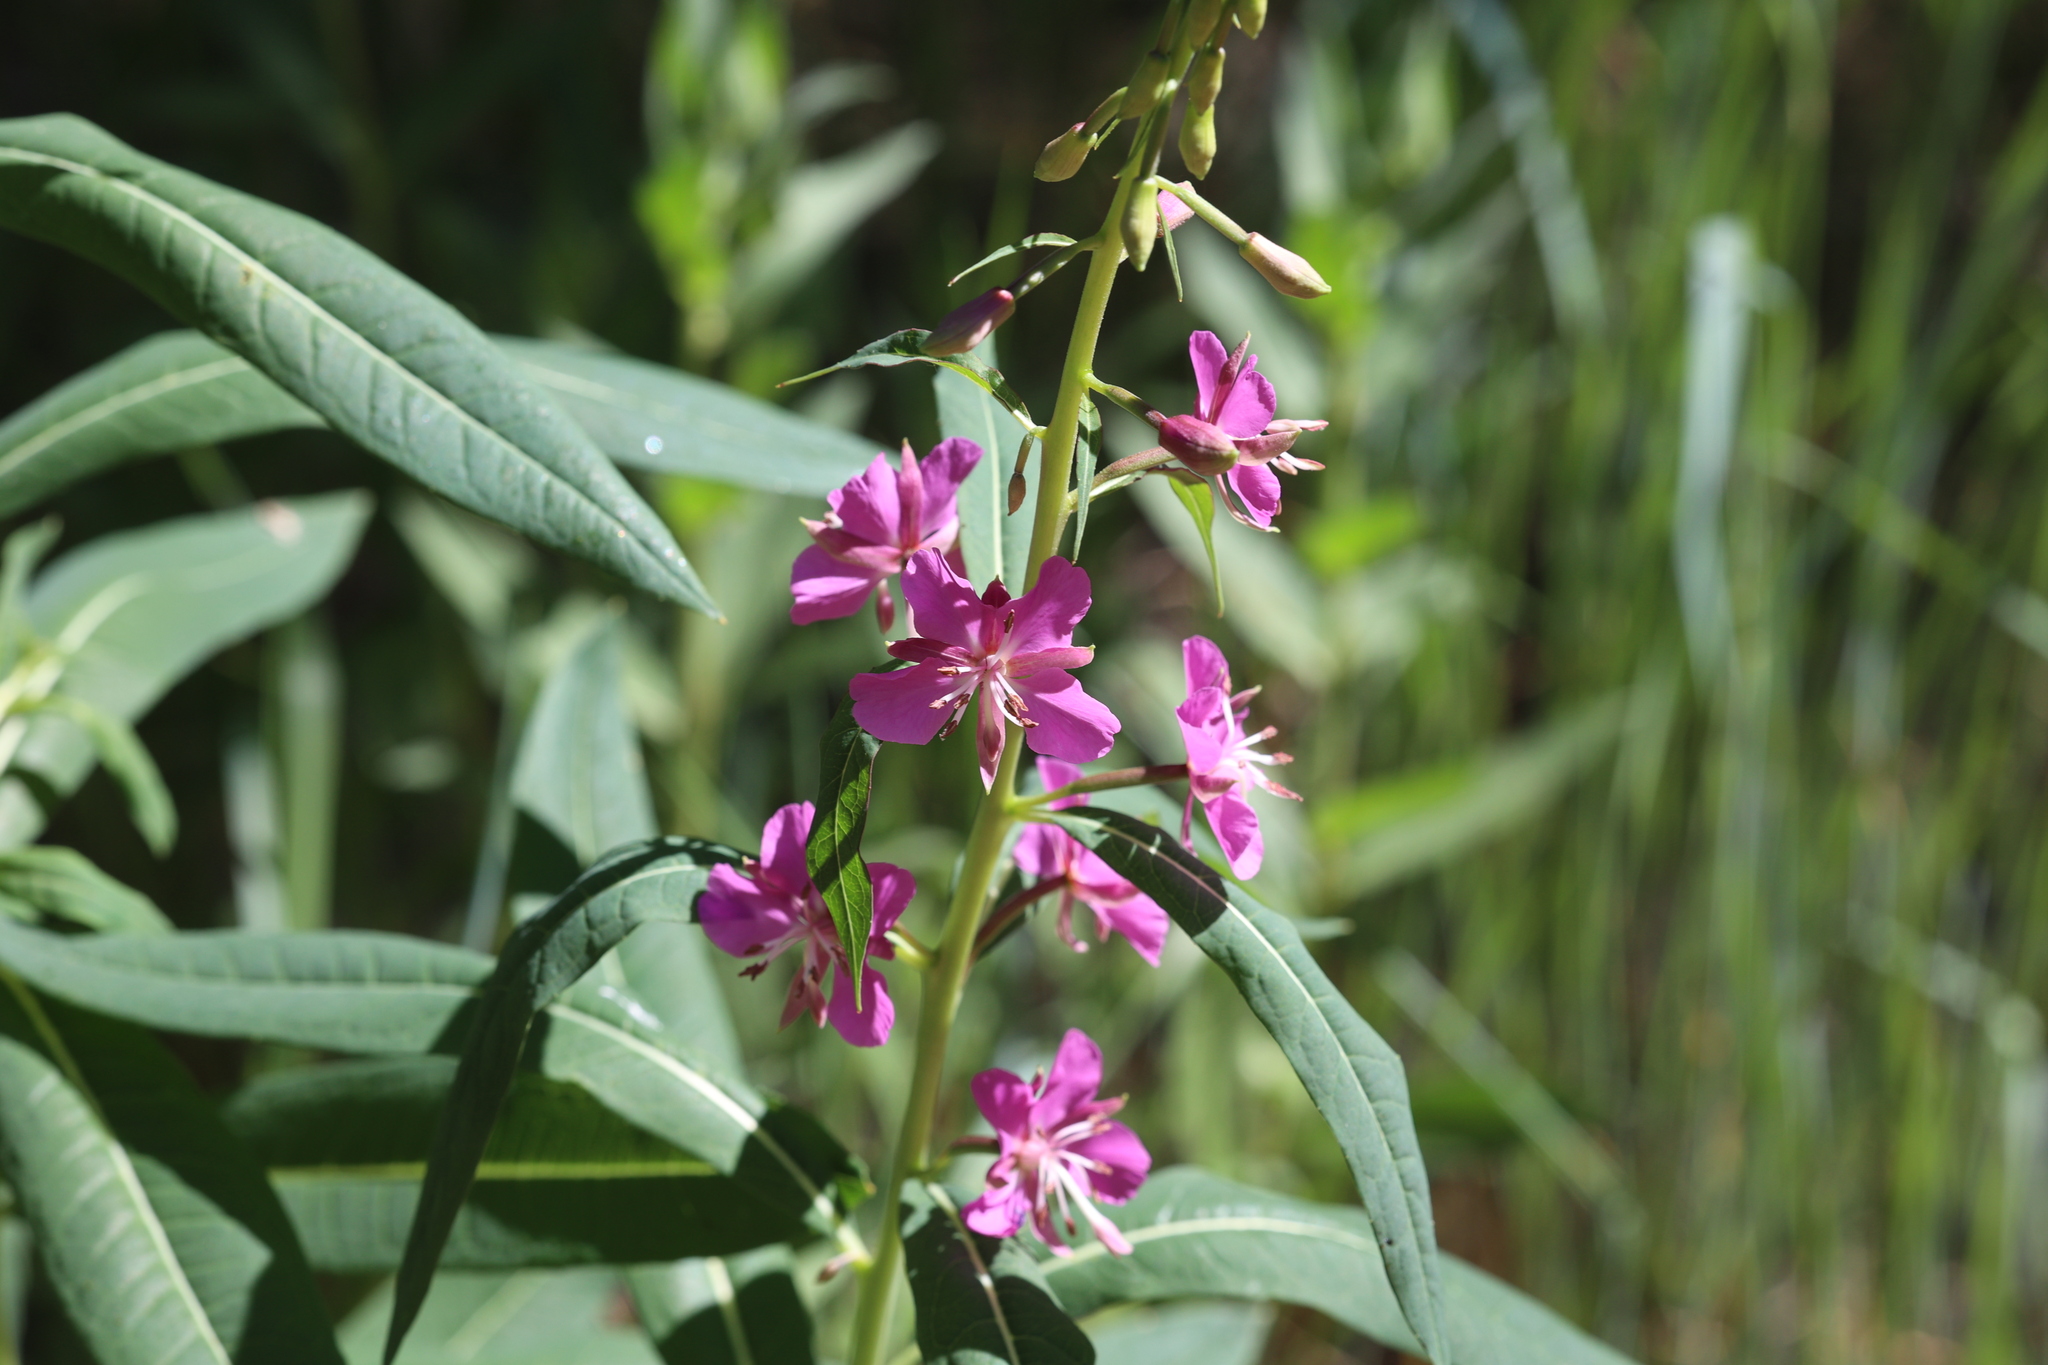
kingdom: Plantae
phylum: Tracheophyta
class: Magnoliopsida
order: Myrtales
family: Onagraceae
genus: Chamaenerion
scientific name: Chamaenerion angustifolium
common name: Fireweed
